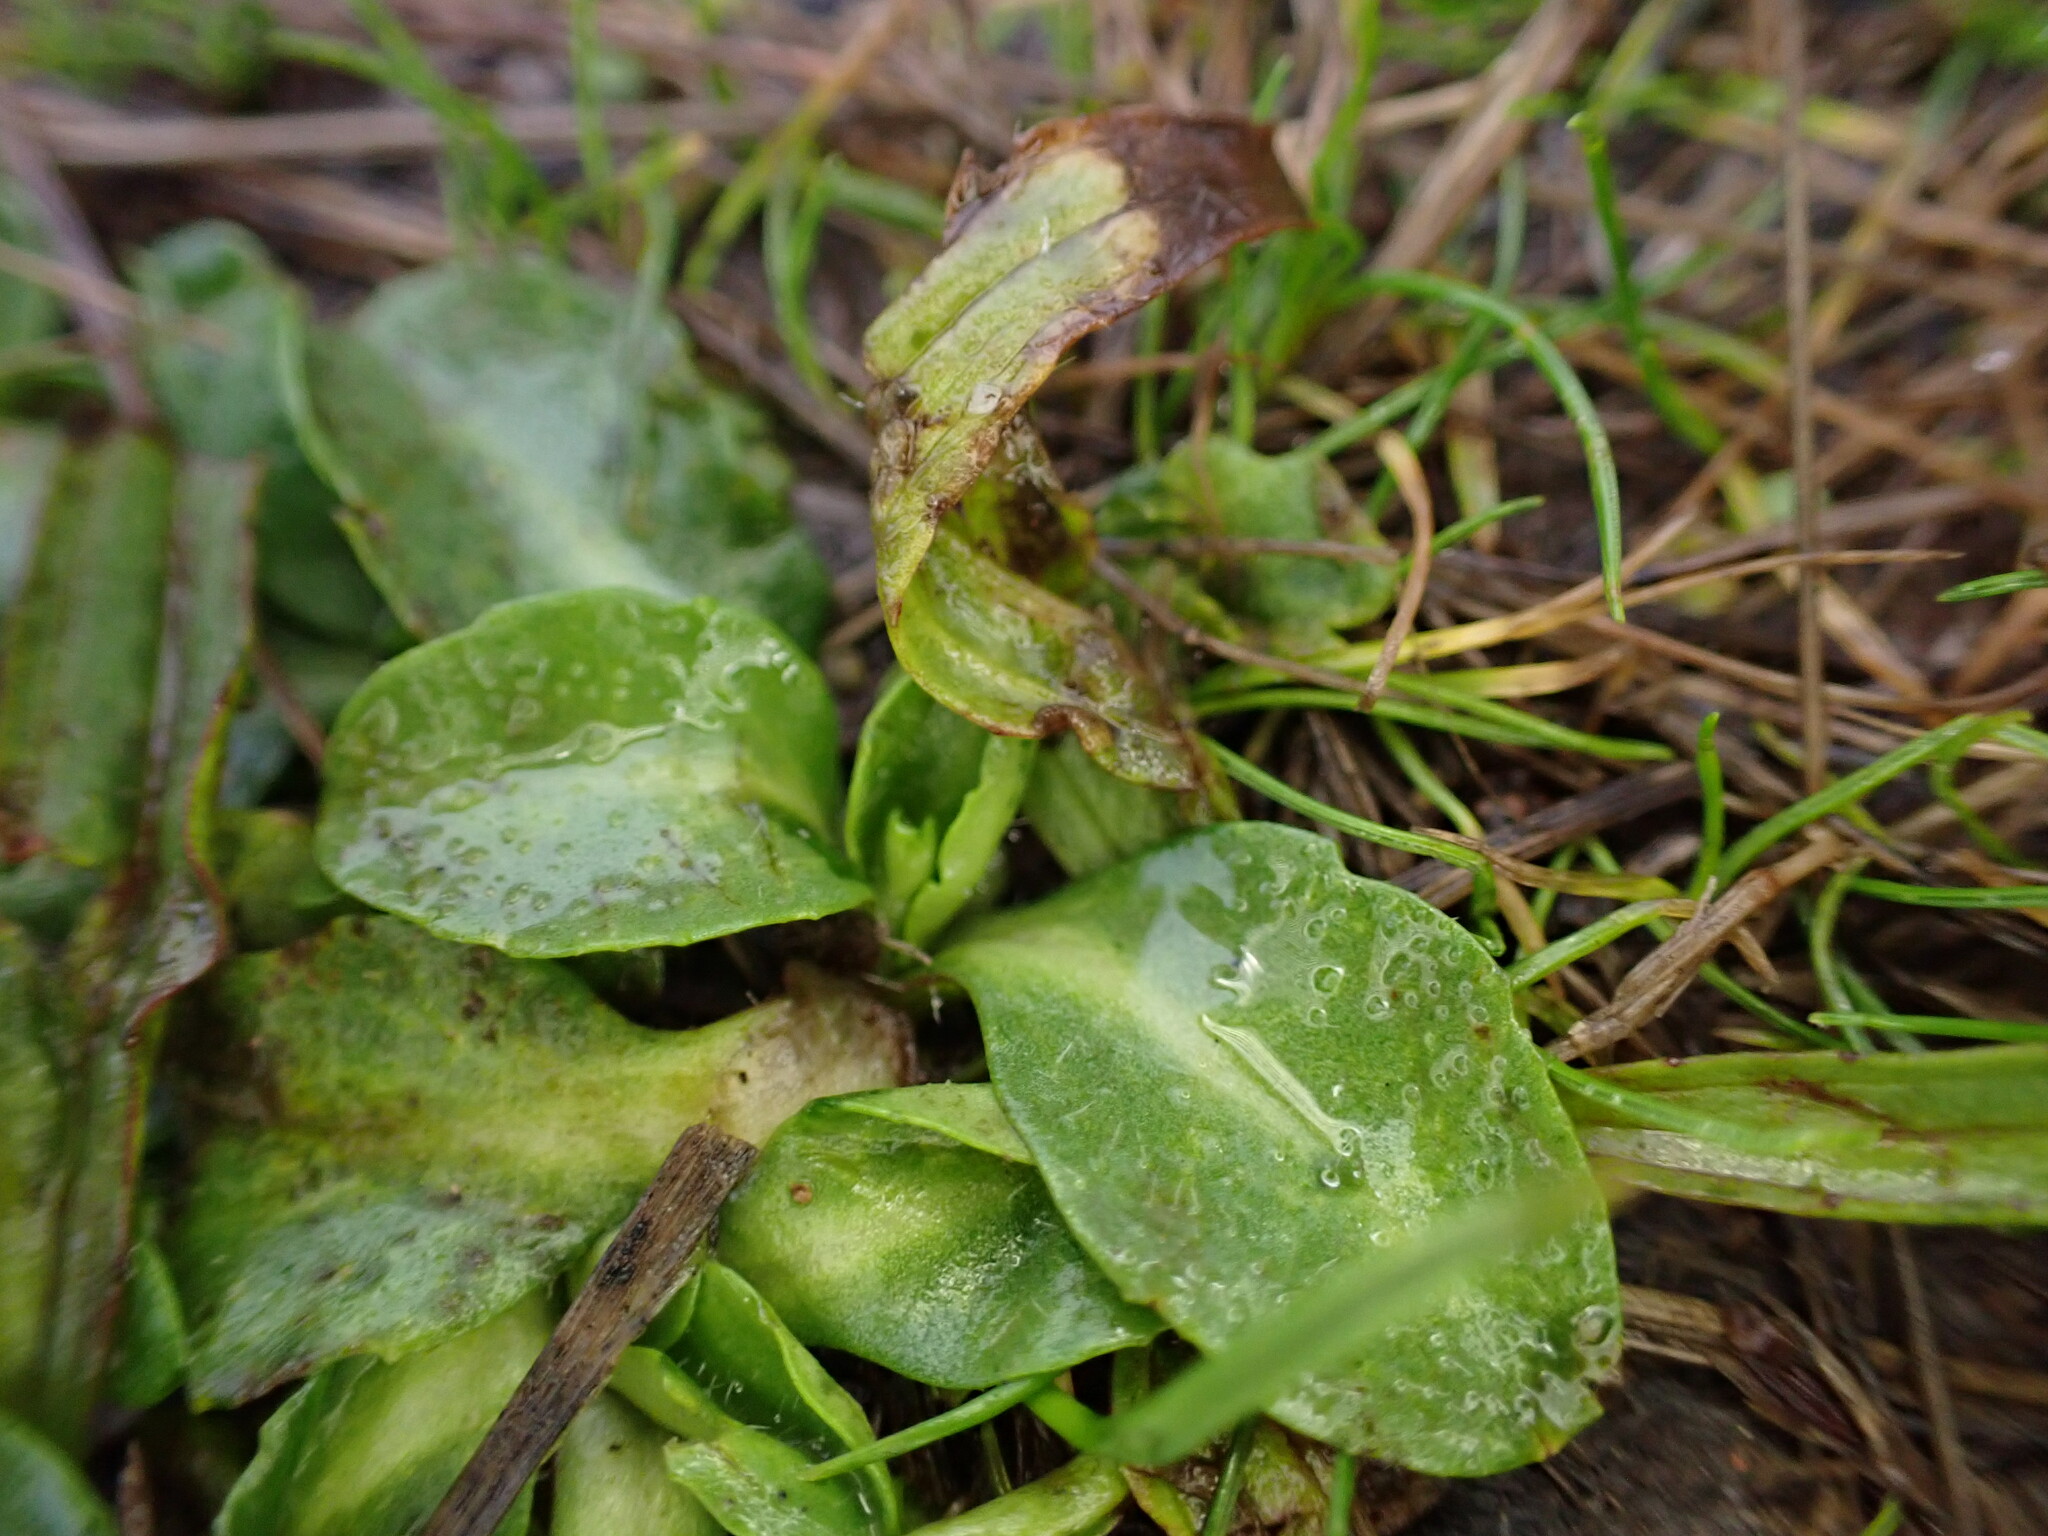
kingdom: Plantae
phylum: Tracheophyta
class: Magnoliopsida
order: Asterales
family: Asteraceae
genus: Bellis
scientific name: Bellis perennis
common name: Lawndaisy
